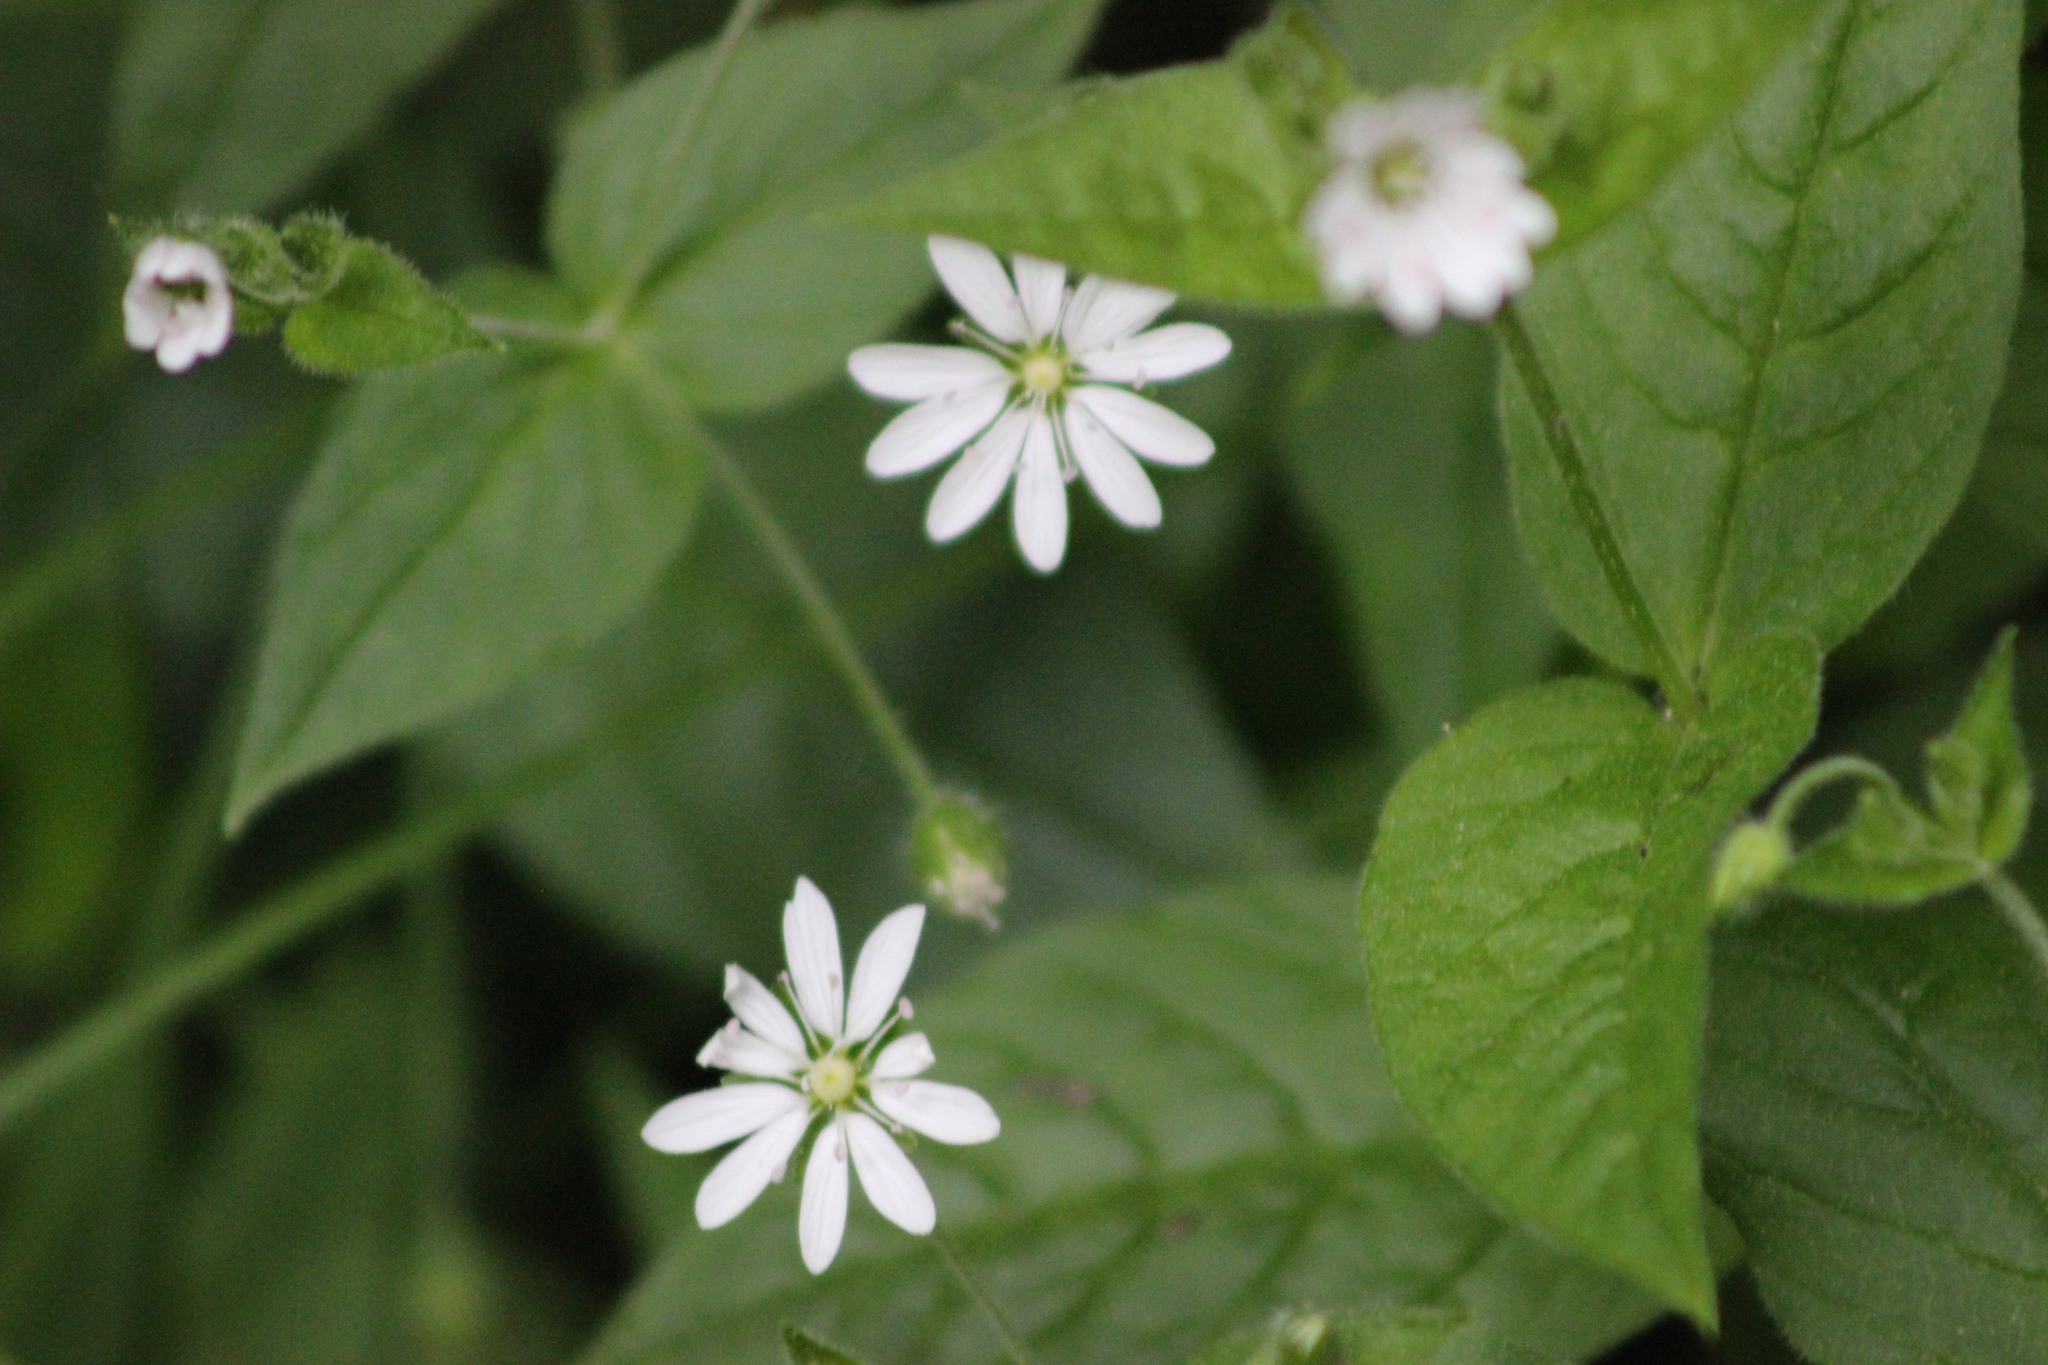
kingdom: Plantae
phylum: Tracheophyta
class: Magnoliopsida
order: Caryophyllales
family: Caryophyllaceae
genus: Stellaria
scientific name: Stellaria bungeana
